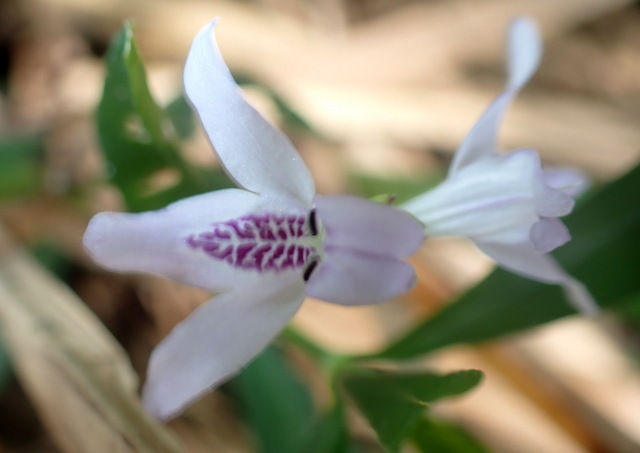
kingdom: Plantae
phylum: Tracheophyta
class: Magnoliopsida
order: Lamiales
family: Acanthaceae
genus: Dianthera
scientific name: Dianthera americana
